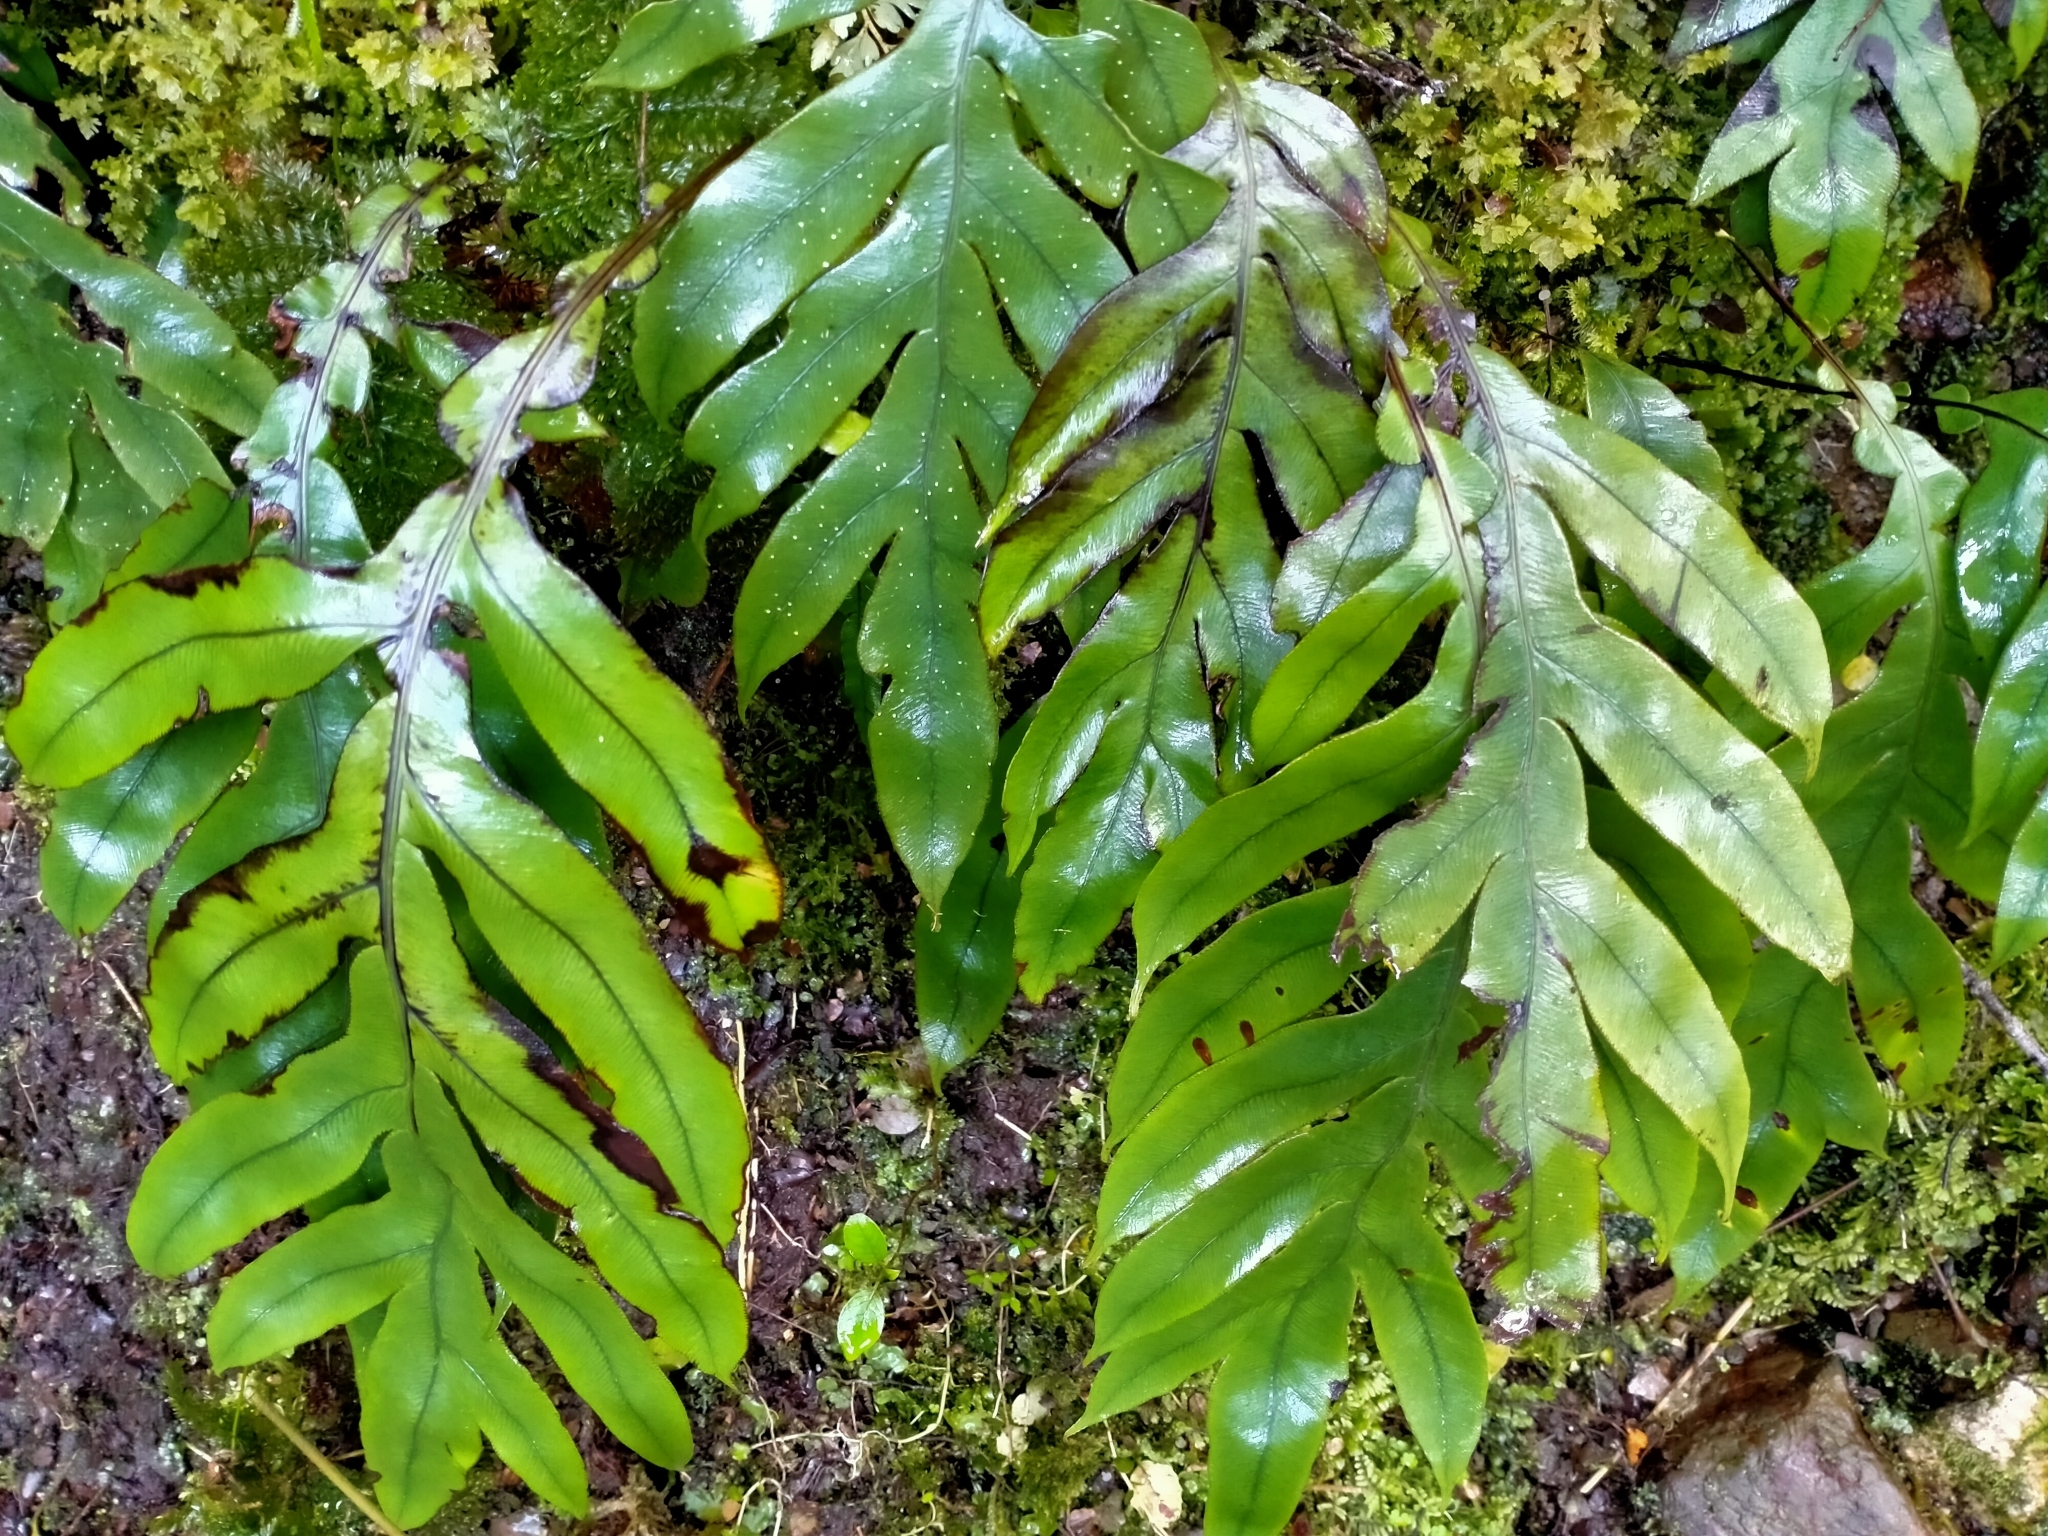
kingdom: Plantae
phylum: Tracheophyta
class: Polypodiopsida
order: Polypodiales
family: Blechnaceae
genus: Austroblechnum
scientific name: Austroblechnum colensoi
